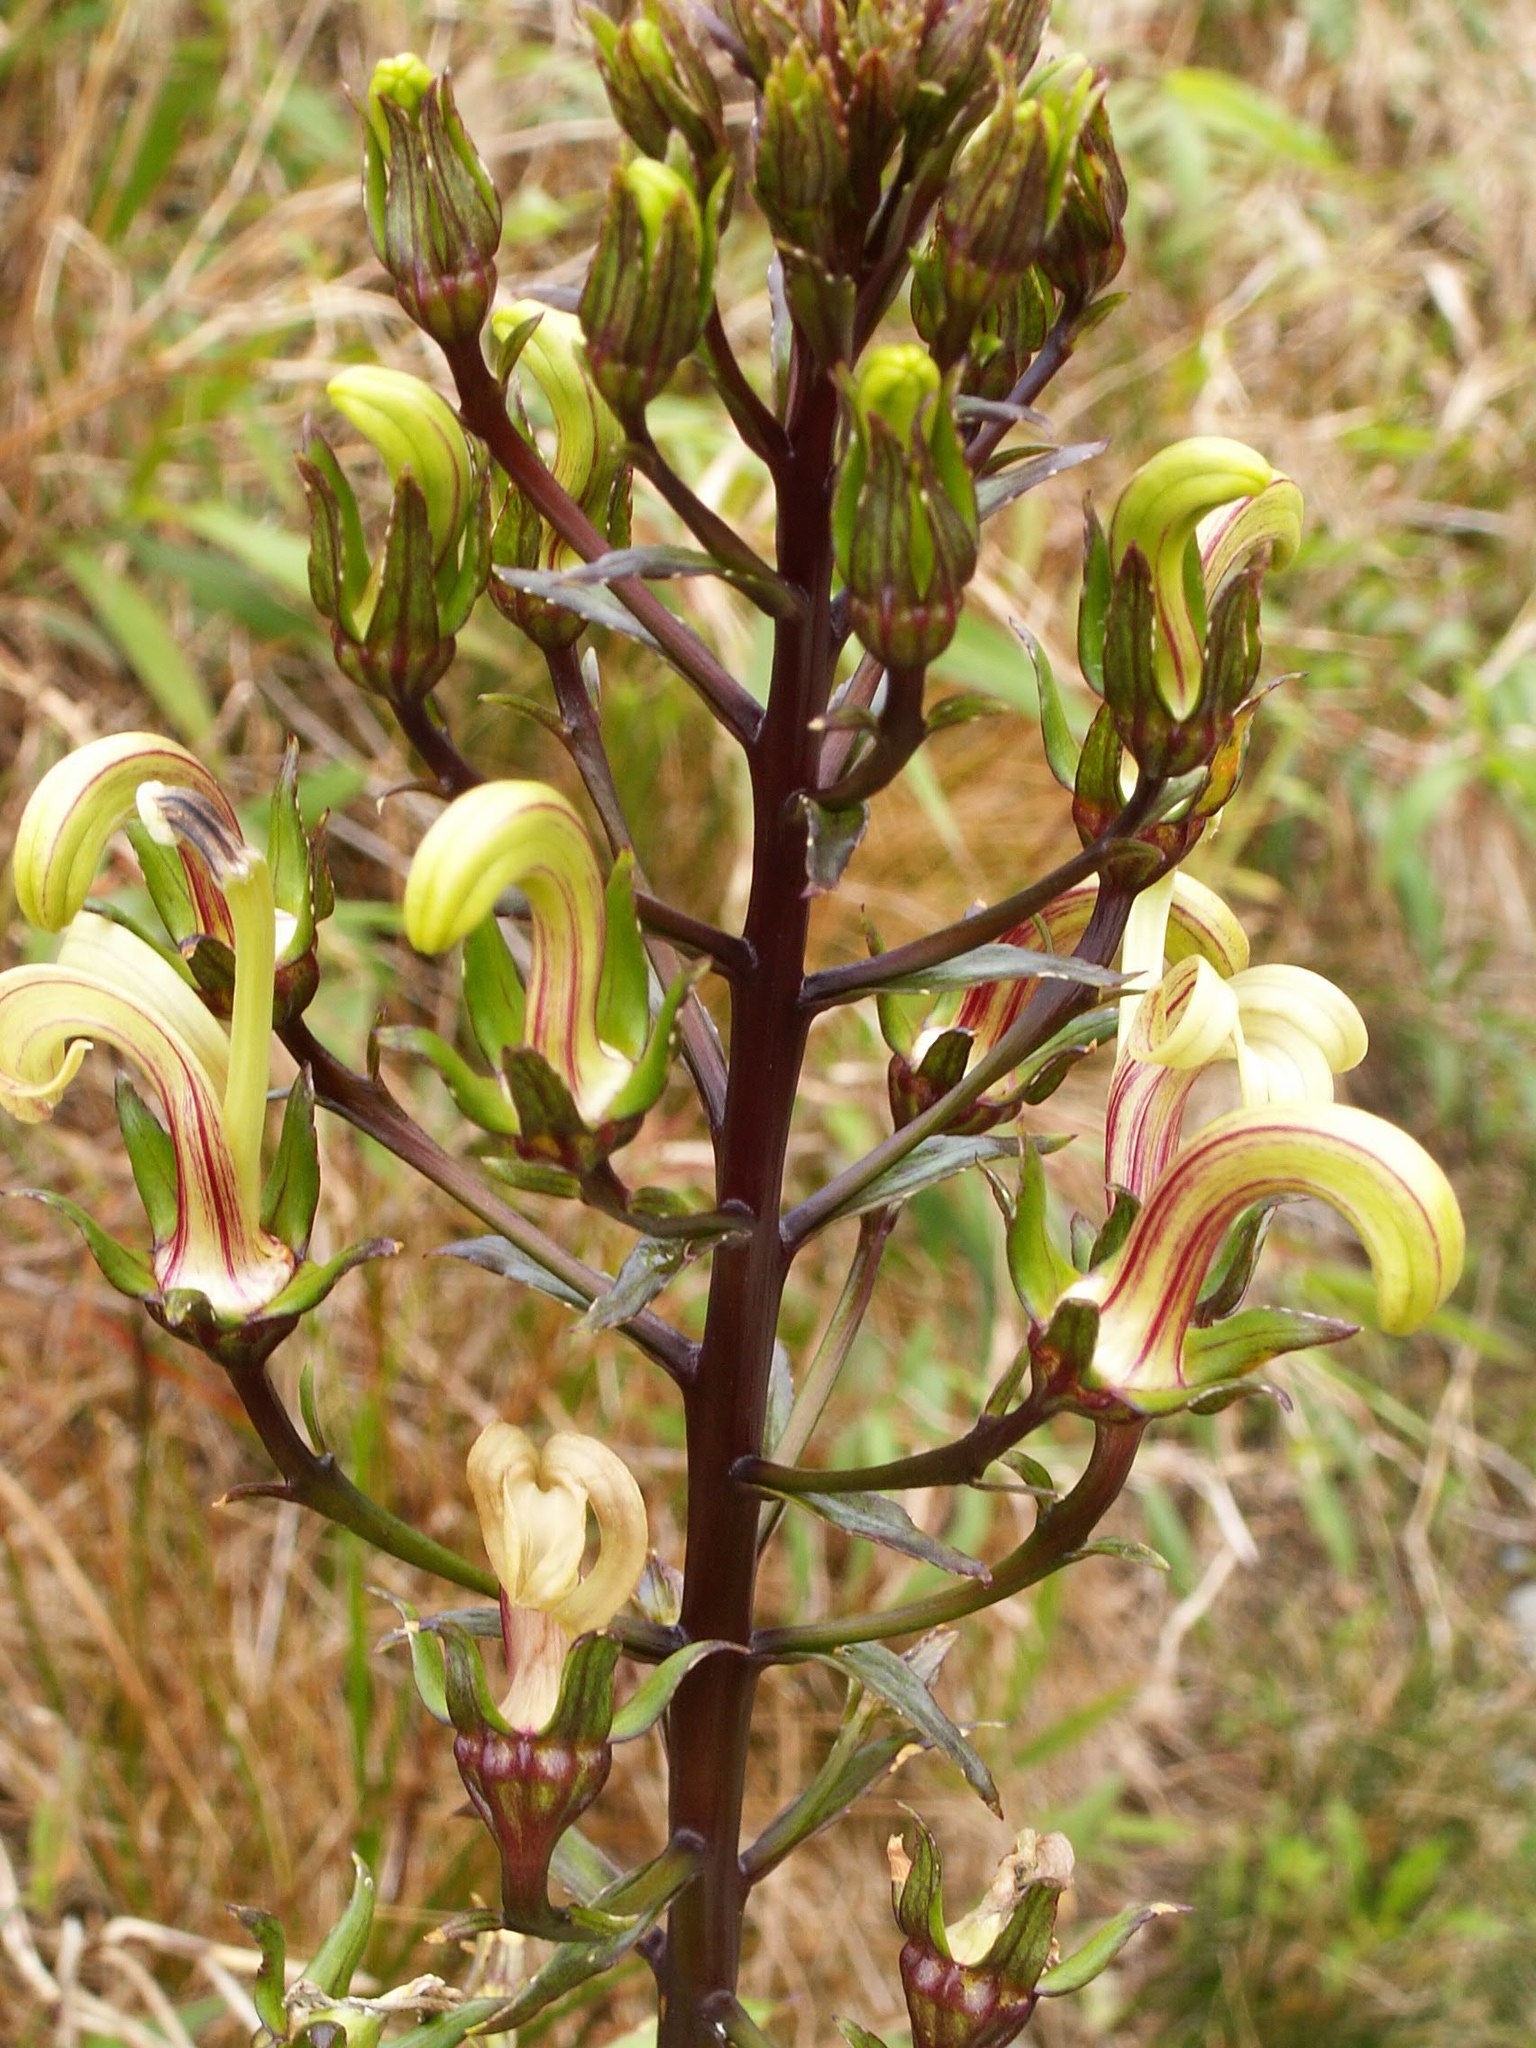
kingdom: Plantae
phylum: Tracheophyta
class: Magnoliopsida
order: Asterales
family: Campanulaceae
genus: Lobelia
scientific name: Lobelia stricta
